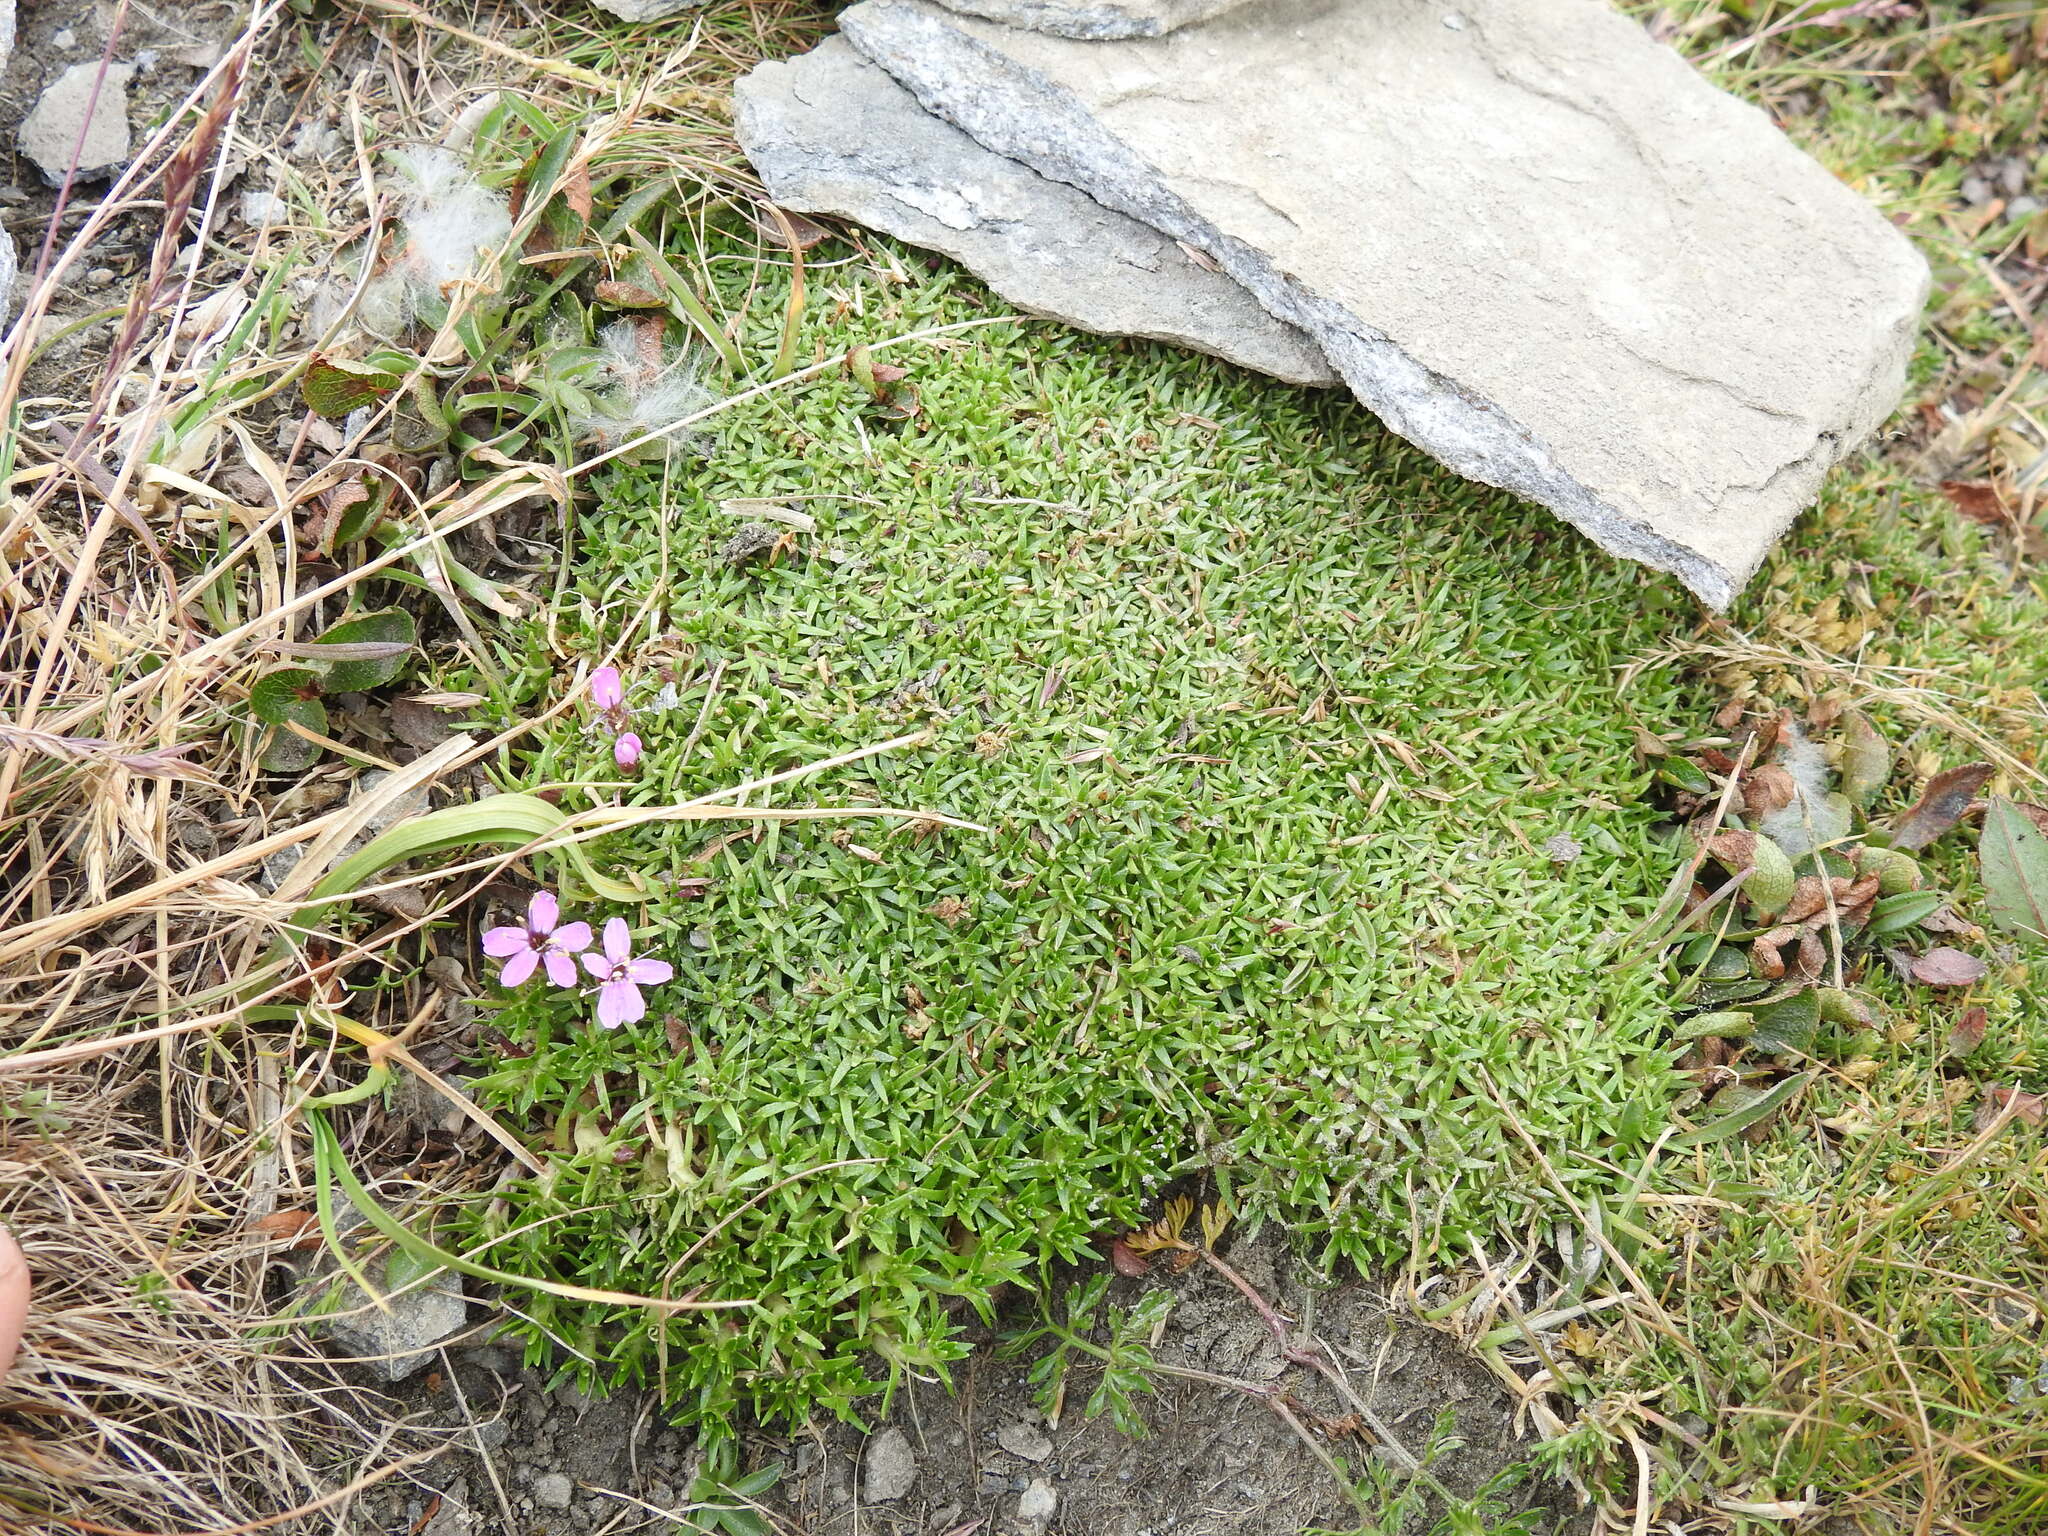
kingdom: Plantae
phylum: Tracheophyta
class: Magnoliopsida
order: Caryophyllales
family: Caryophyllaceae
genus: Silene
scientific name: Silene acaulis
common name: Moss campion
